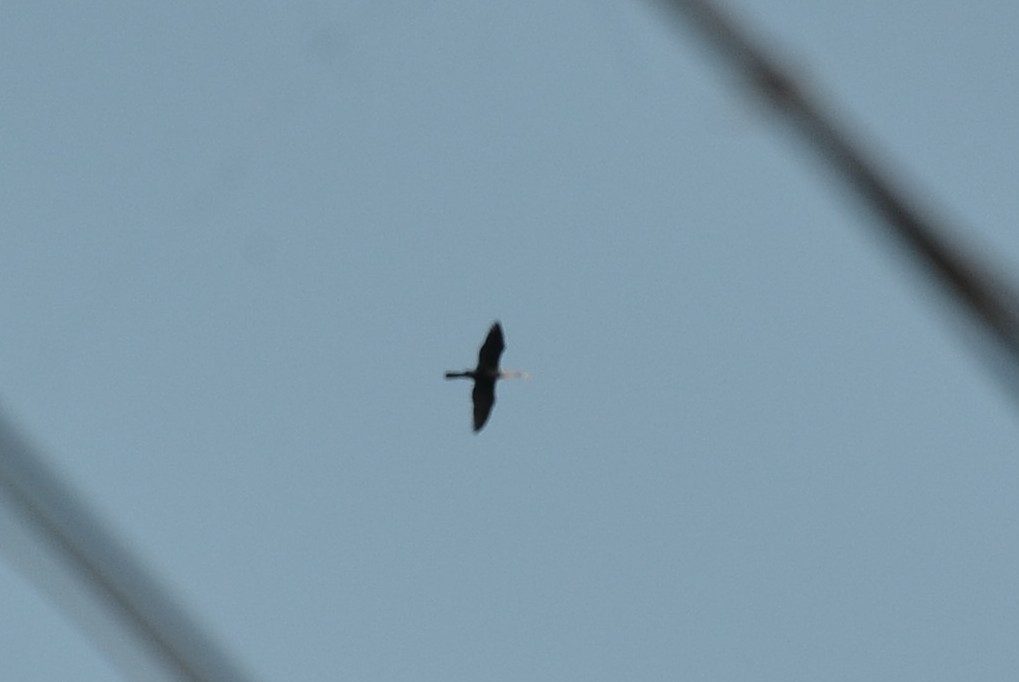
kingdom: Animalia
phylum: Chordata
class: Aves
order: Suliformes
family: Anhingidae
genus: Anhinga
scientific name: Anhinga melanogaster
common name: Oriental darter
